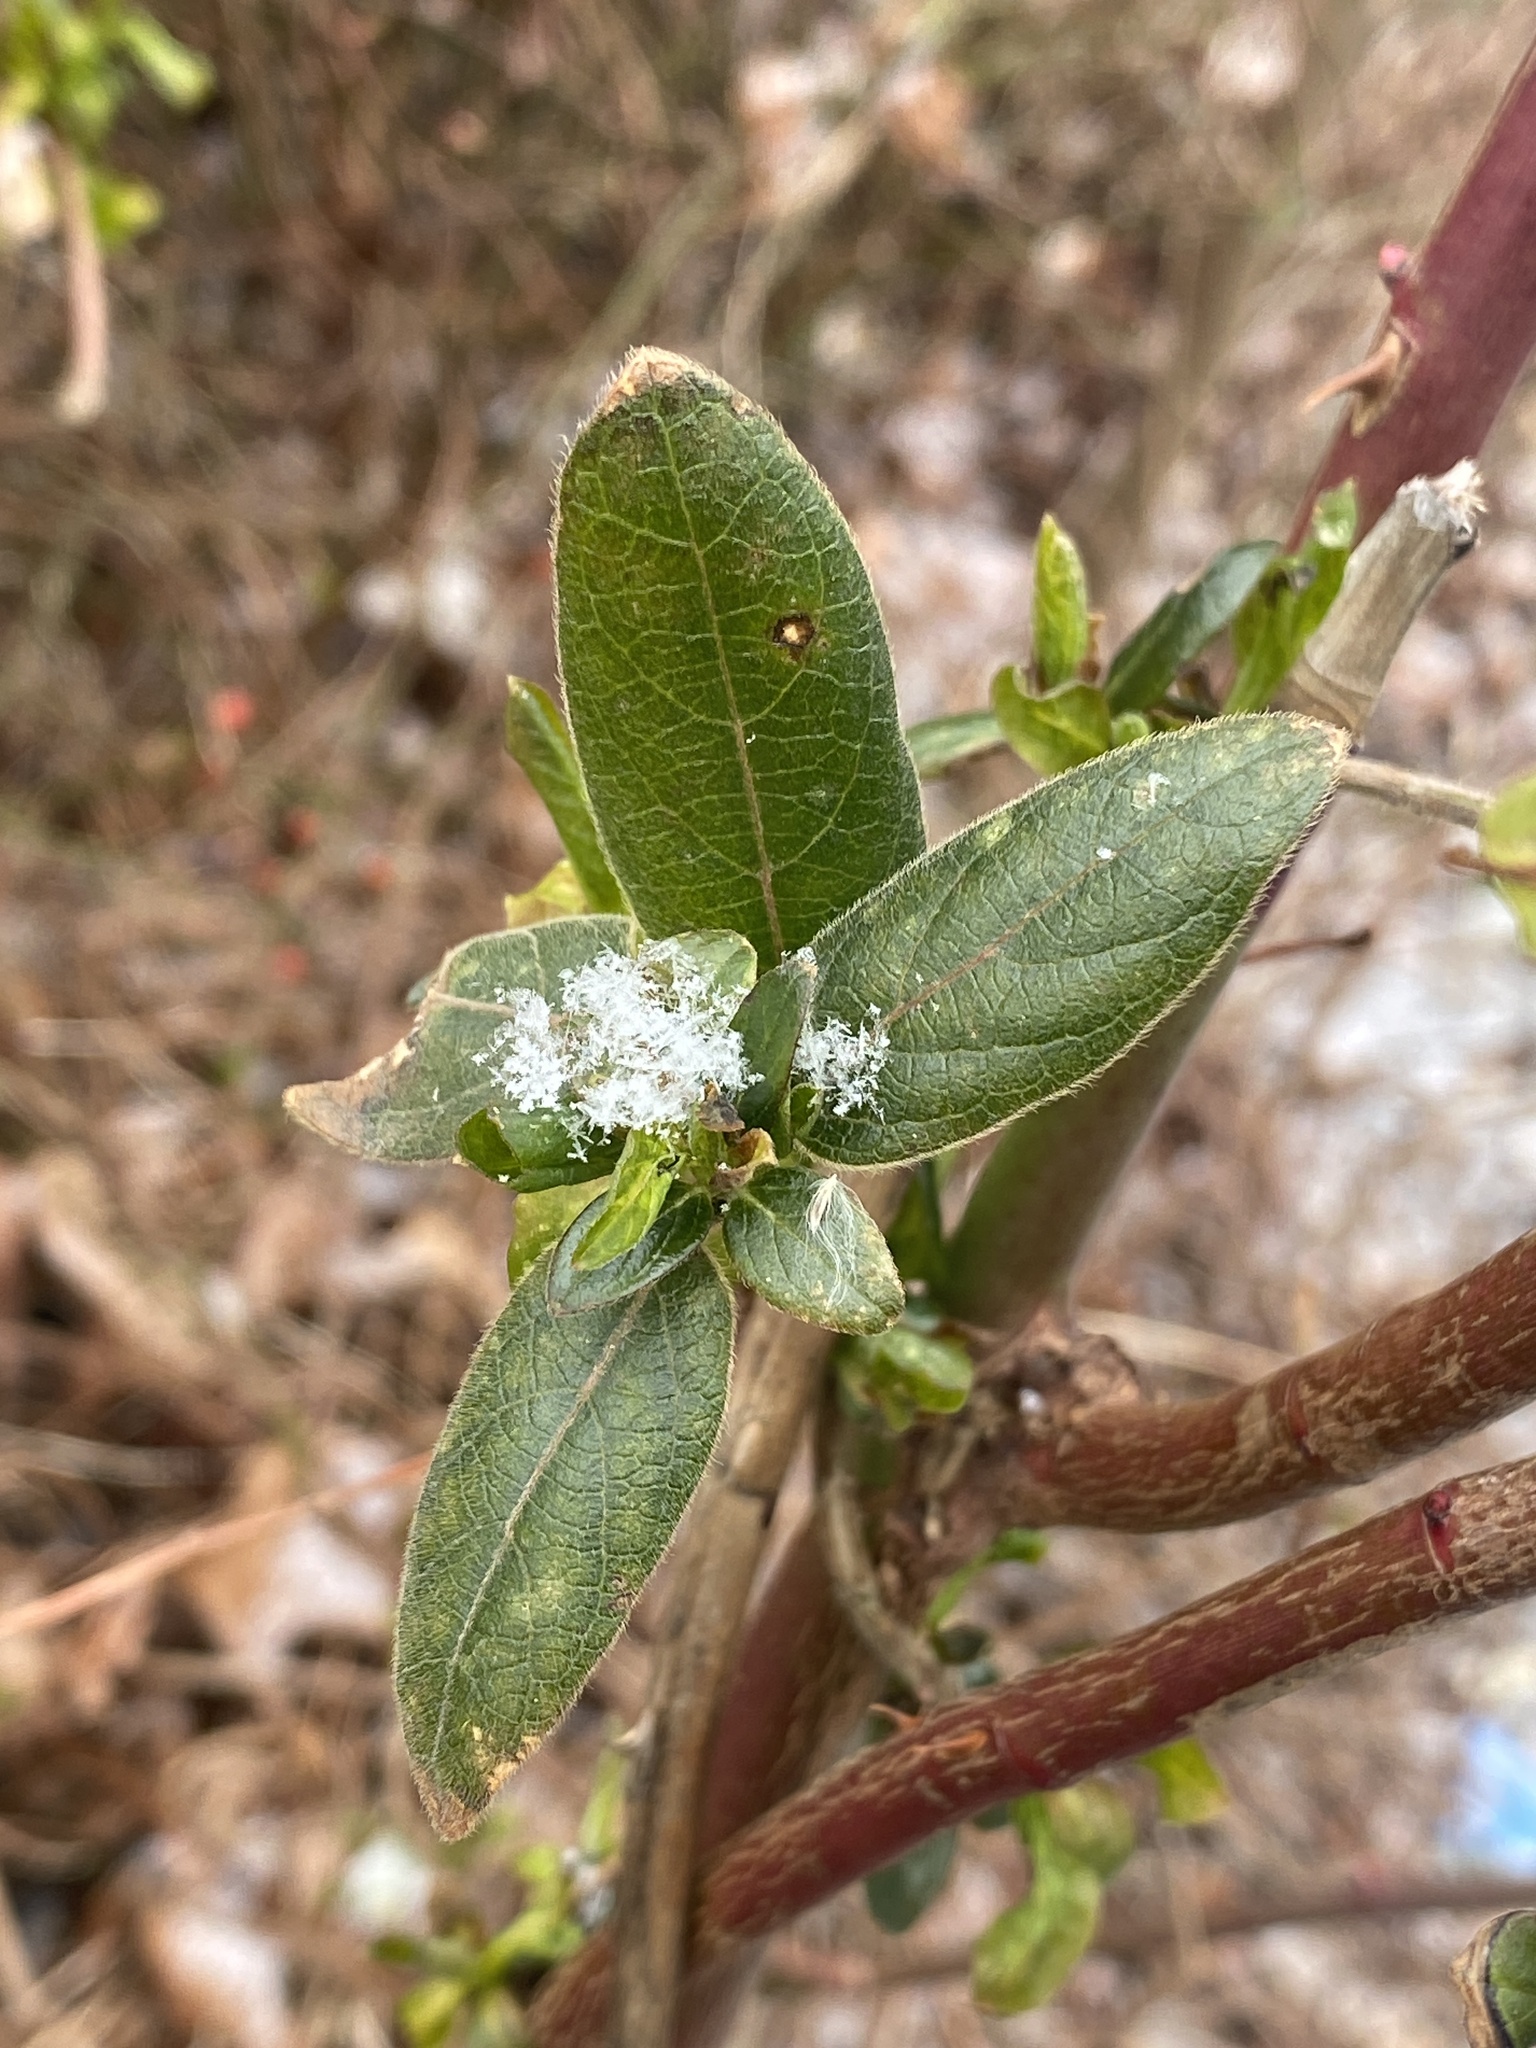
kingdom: Plantae
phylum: Tracheophyta
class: Magnoliopsida
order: Dipsacales
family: Caprifoliaceae
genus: Lonicera
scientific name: Lonicera japonica
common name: Japanese honeysuckle
